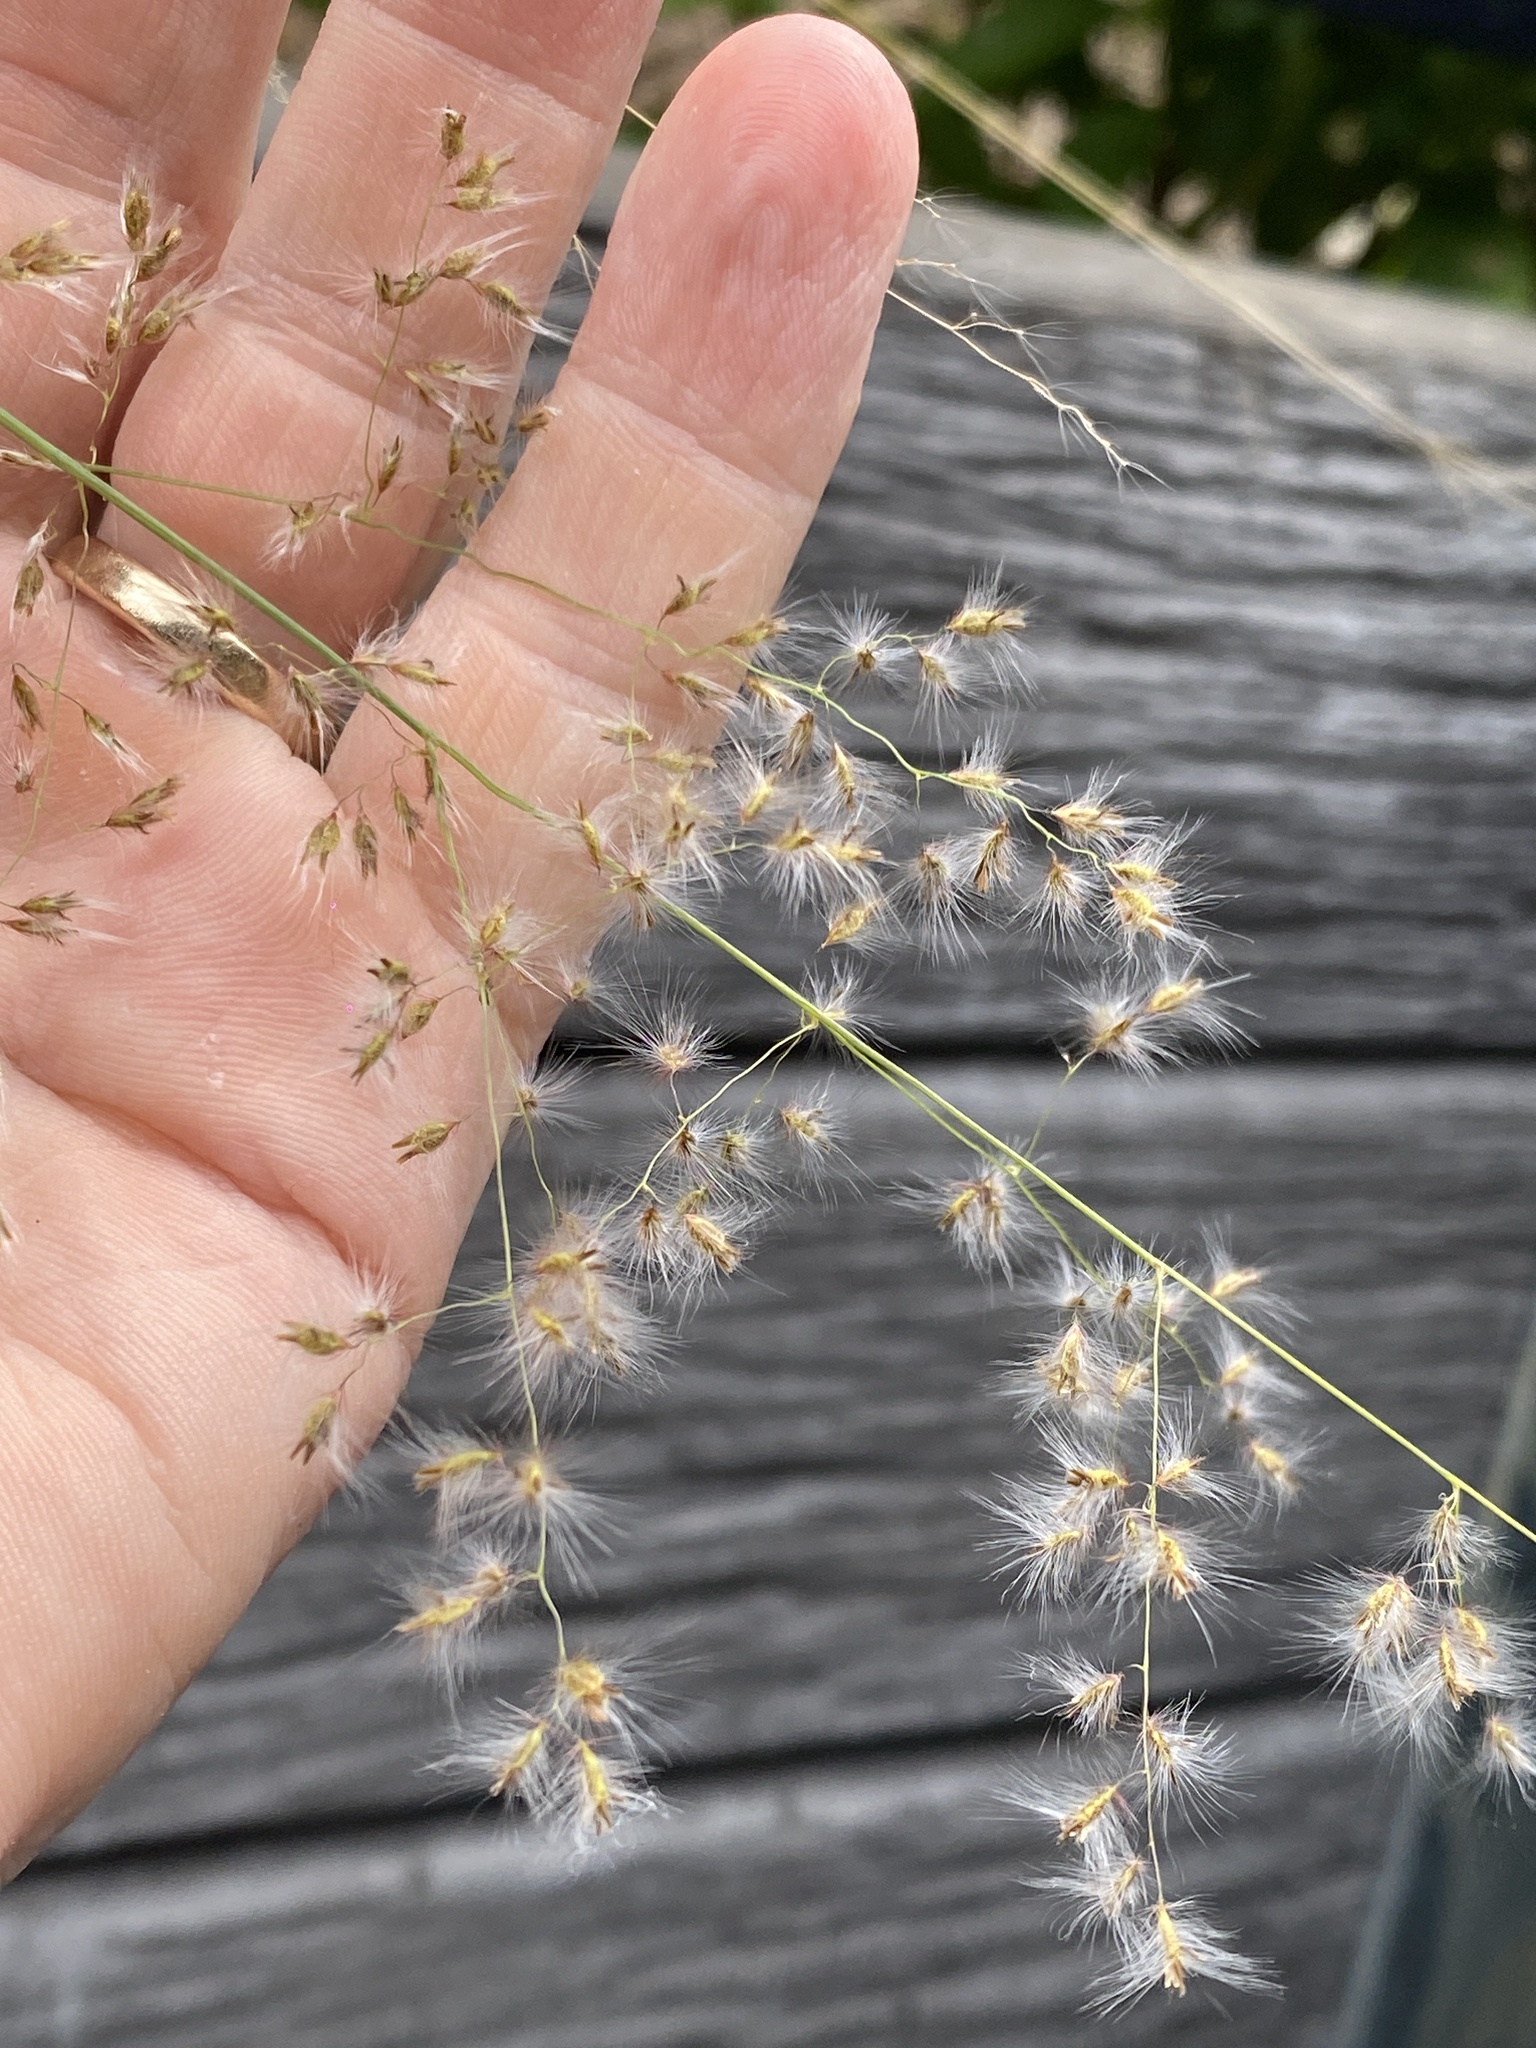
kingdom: Plantae
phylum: Tracheophyta
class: Liliopsida
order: Poales
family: Poaceae
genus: Melinis
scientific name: Melinis repens
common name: Rose natal grass
